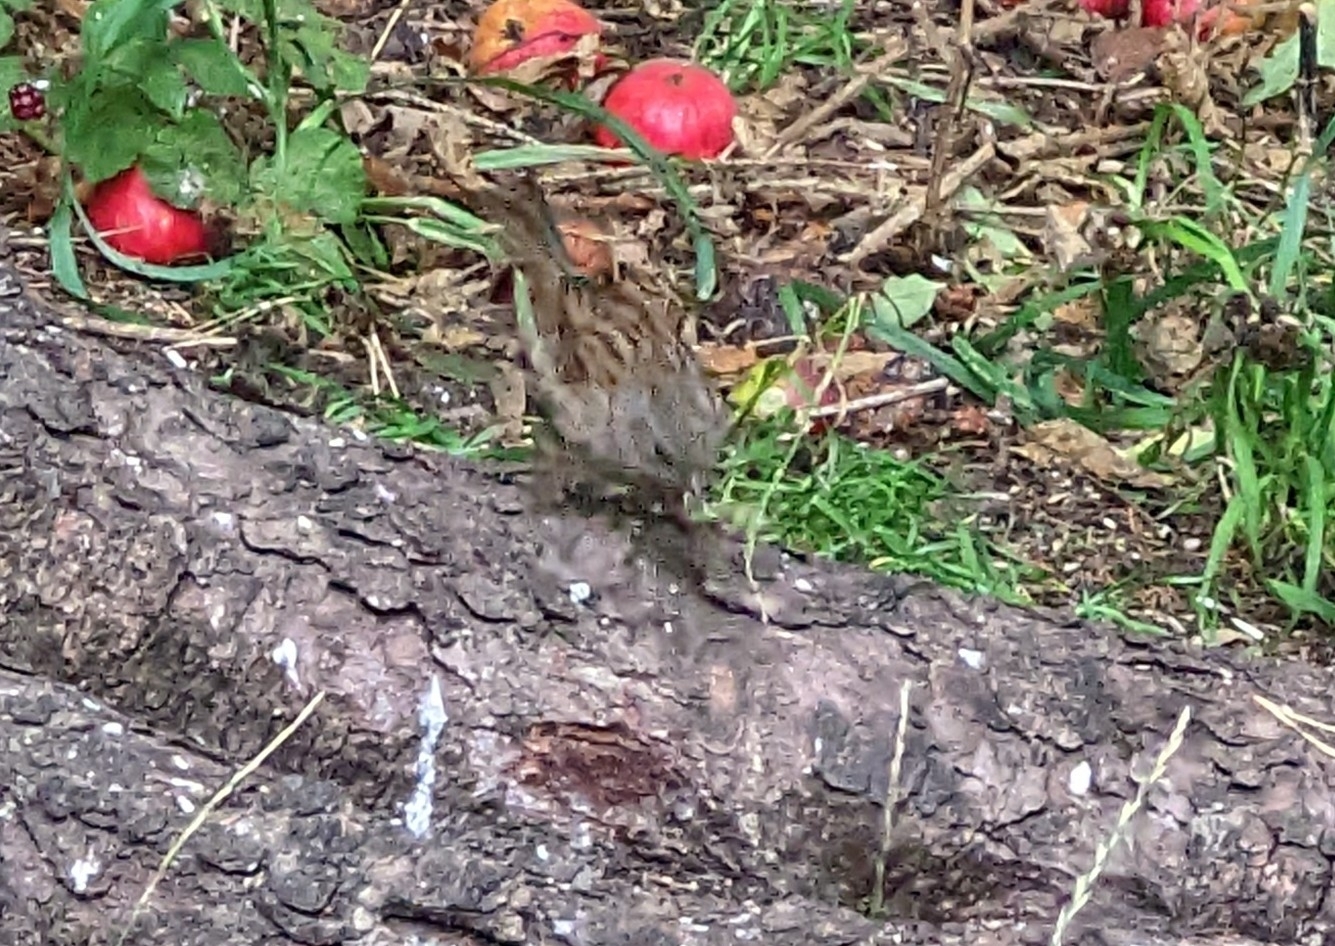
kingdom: Animalia
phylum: Chordata
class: Aves
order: Passeriformes
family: Prunellidae
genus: Prunella
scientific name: Prunella modularis
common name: Dunnock
